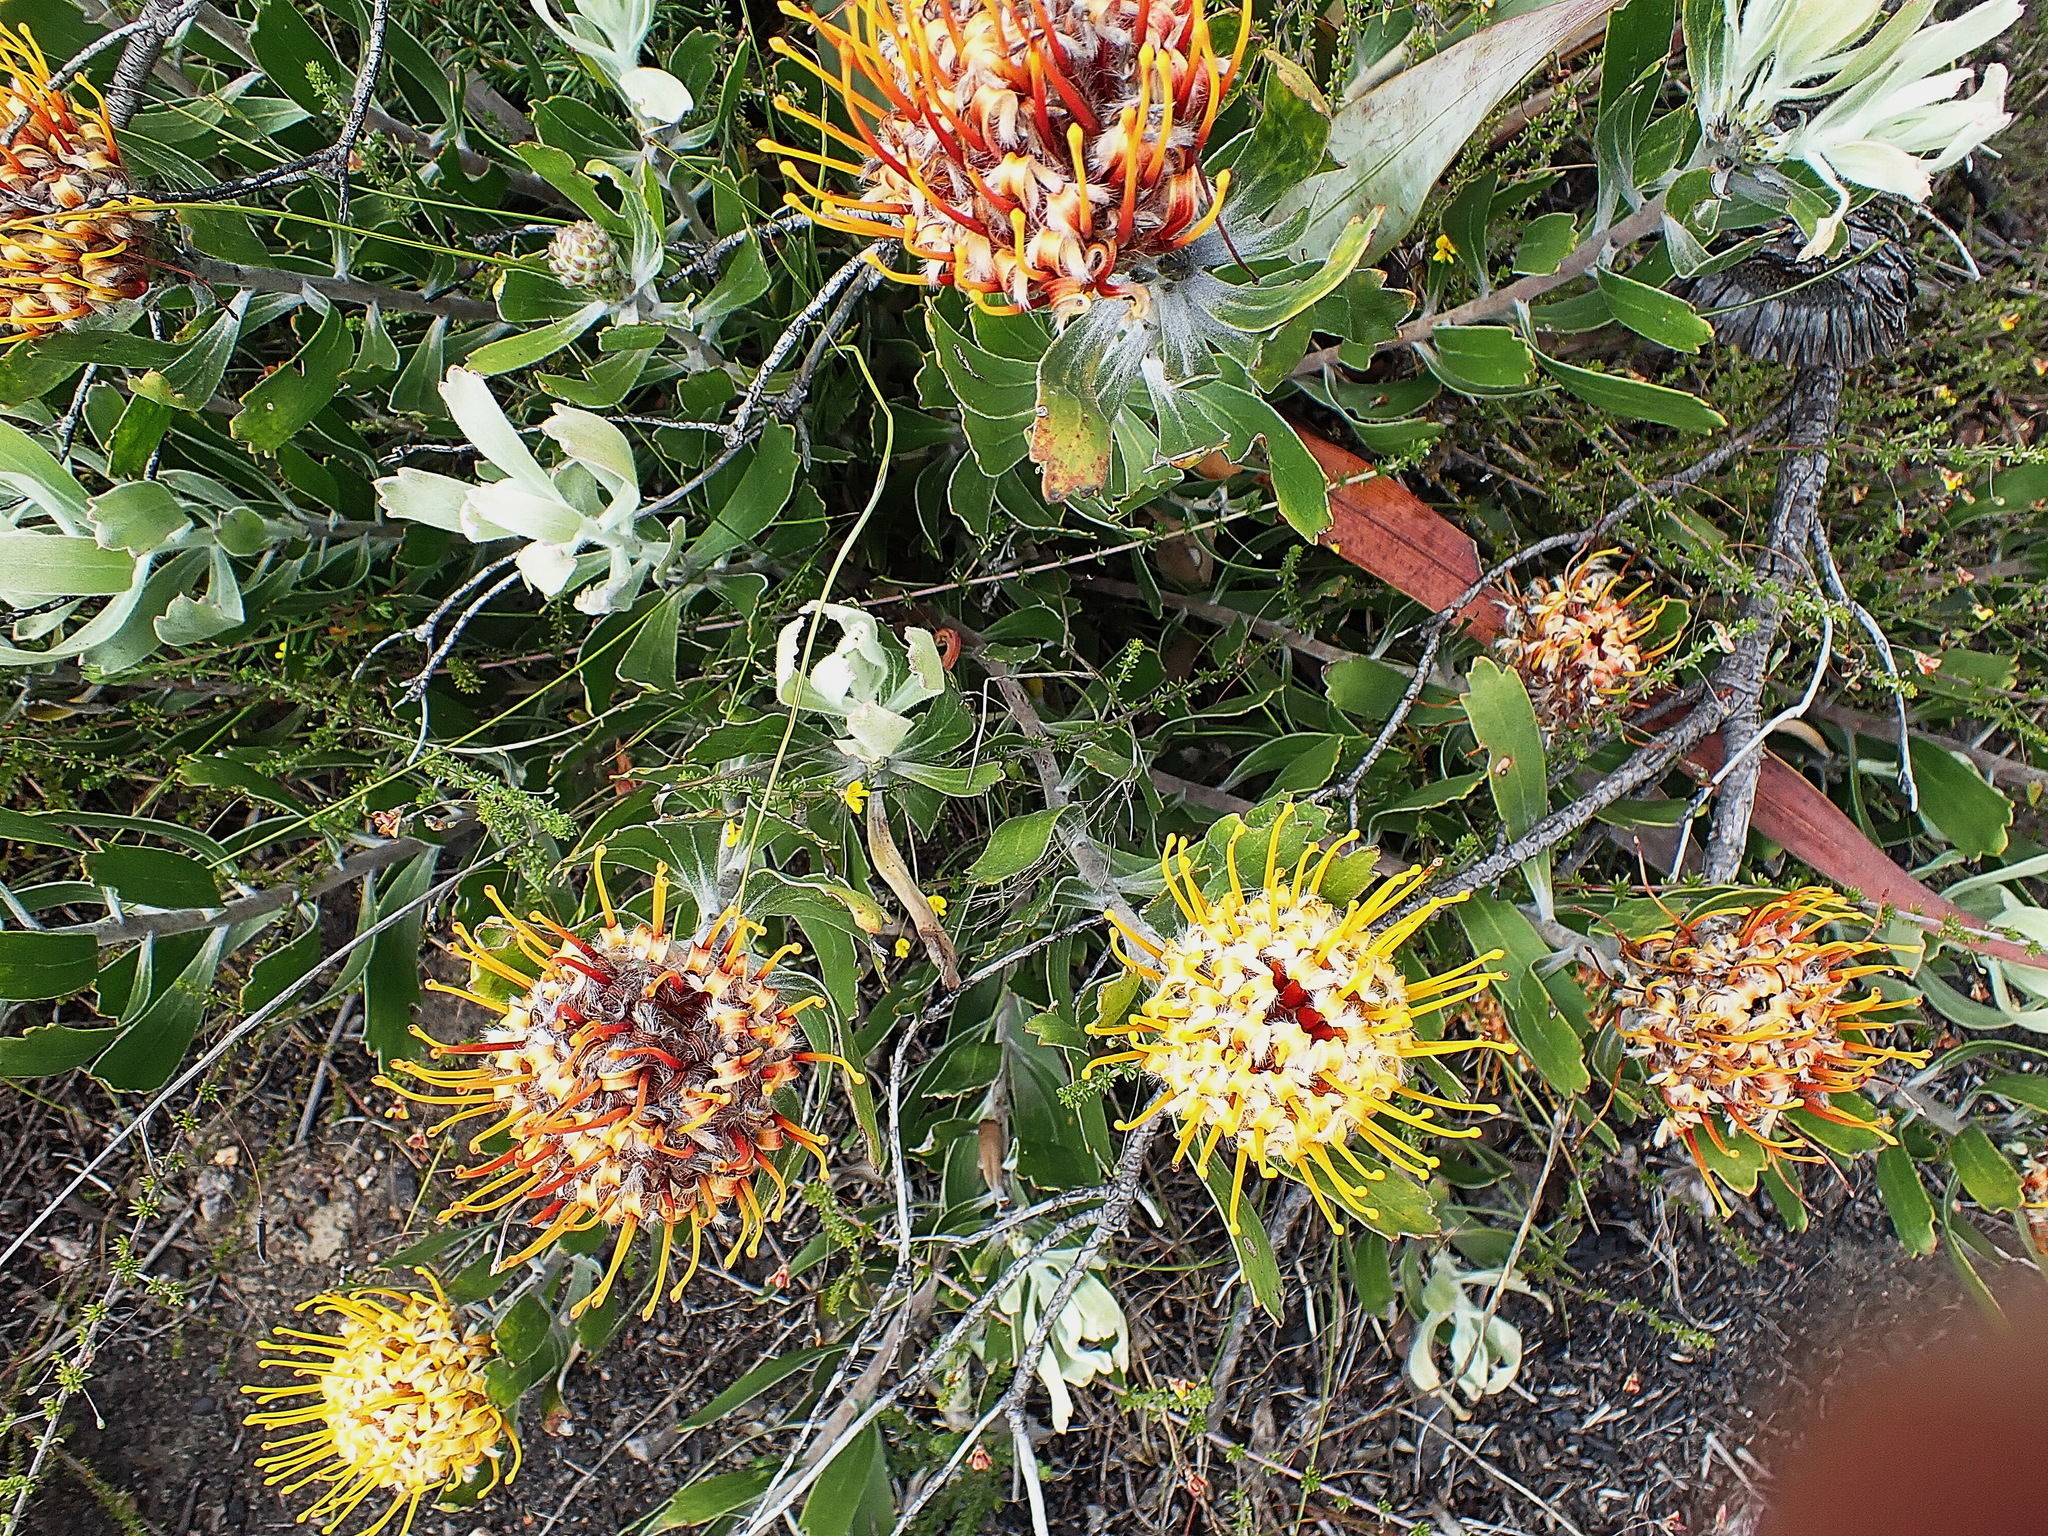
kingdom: Plantae
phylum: Tracheophyta
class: Magnoliopsida
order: Proteales
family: Proteaceae
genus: Leucospermum
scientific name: Leucospermum cuneiforme
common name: Common pincushion
